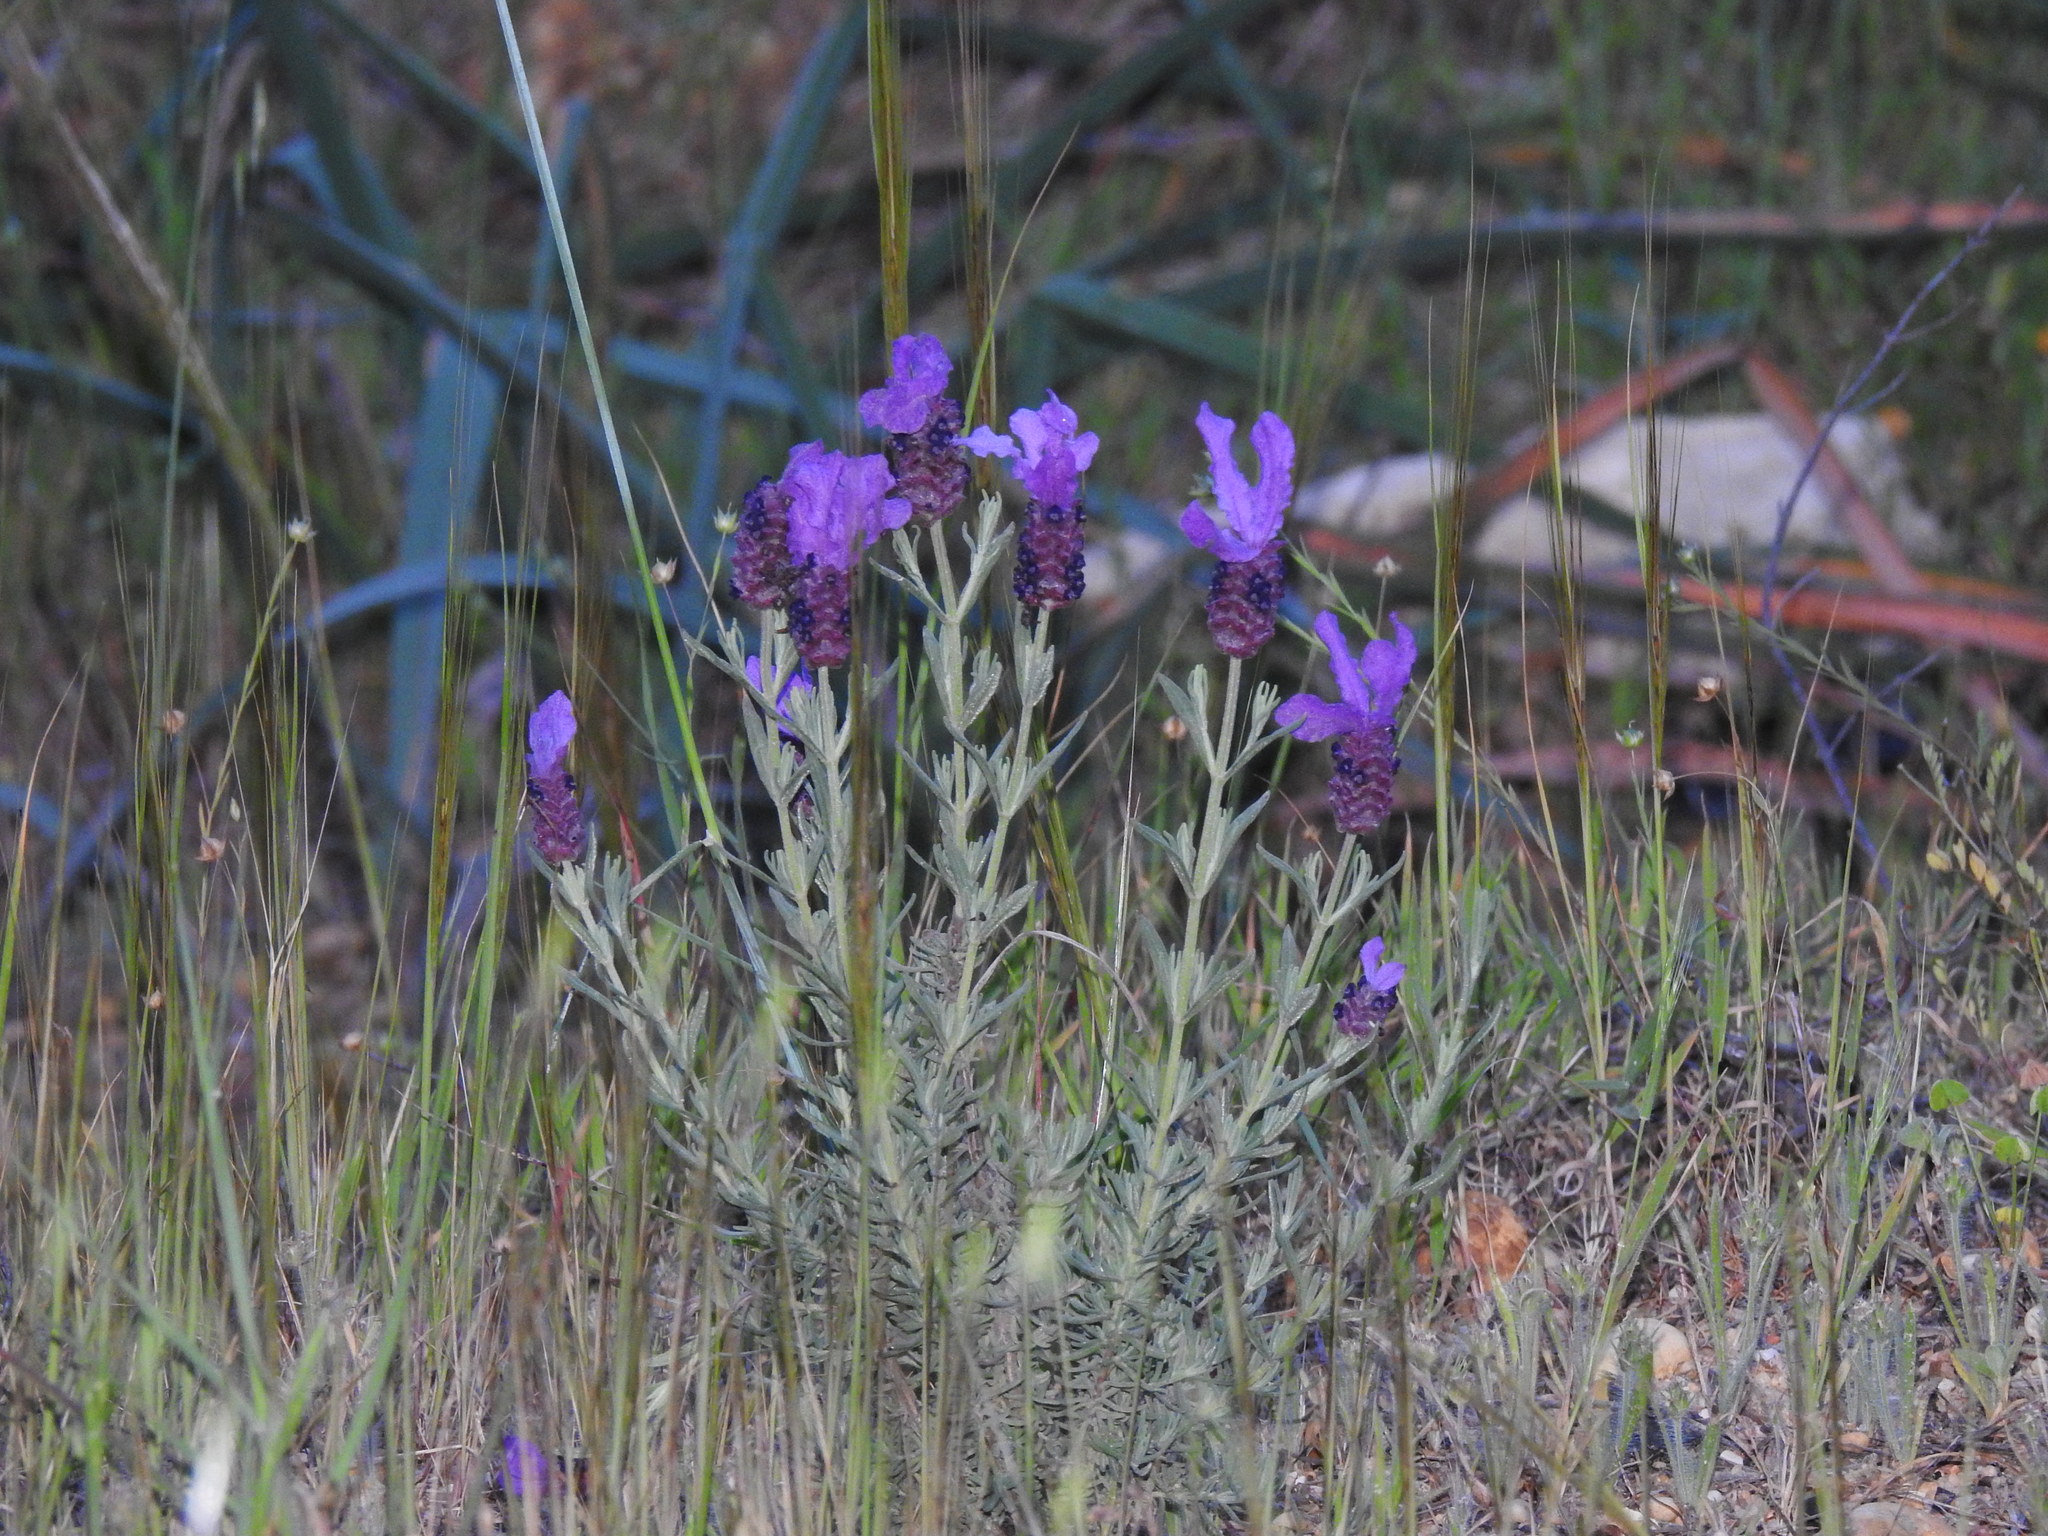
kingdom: Plantae
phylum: Tracheophyta
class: Magnoliopsida
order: Lamiales
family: Lamiaceae
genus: Lavandula
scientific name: Lavandula stoechas
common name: French lavender
